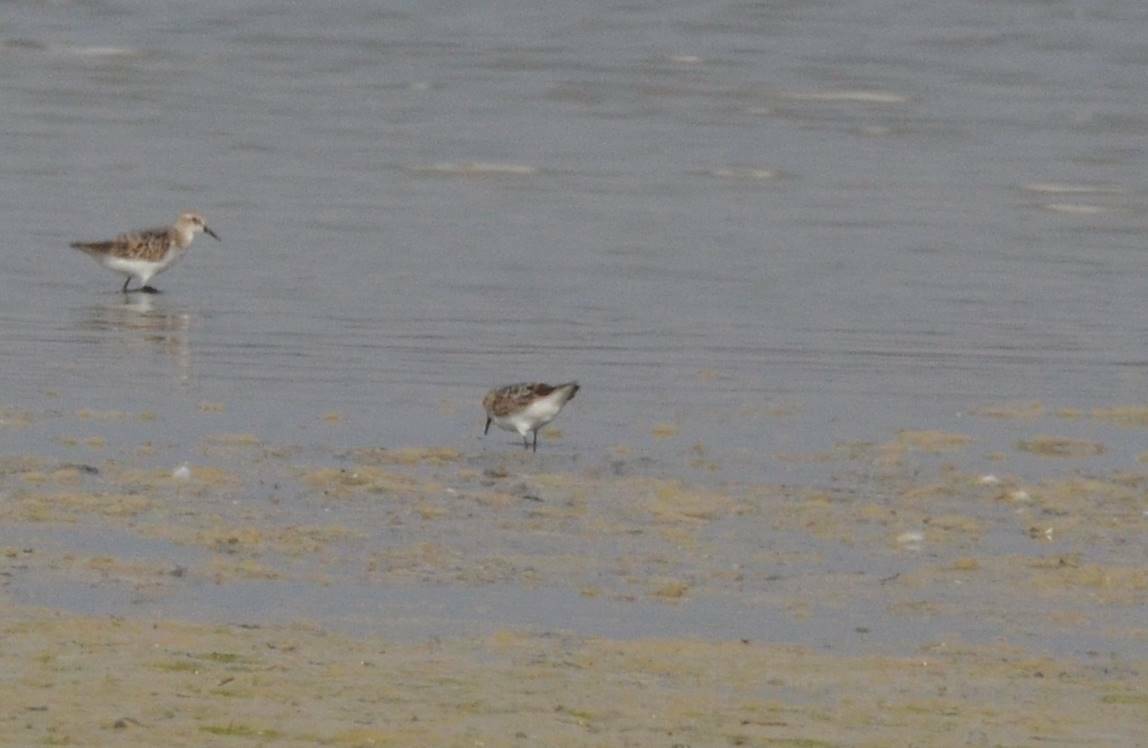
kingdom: Animalia
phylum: Chordata
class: Aves
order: Charadriiformes
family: Scolopacidae
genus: Calidris
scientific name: Calidris minuta
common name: Little stint
